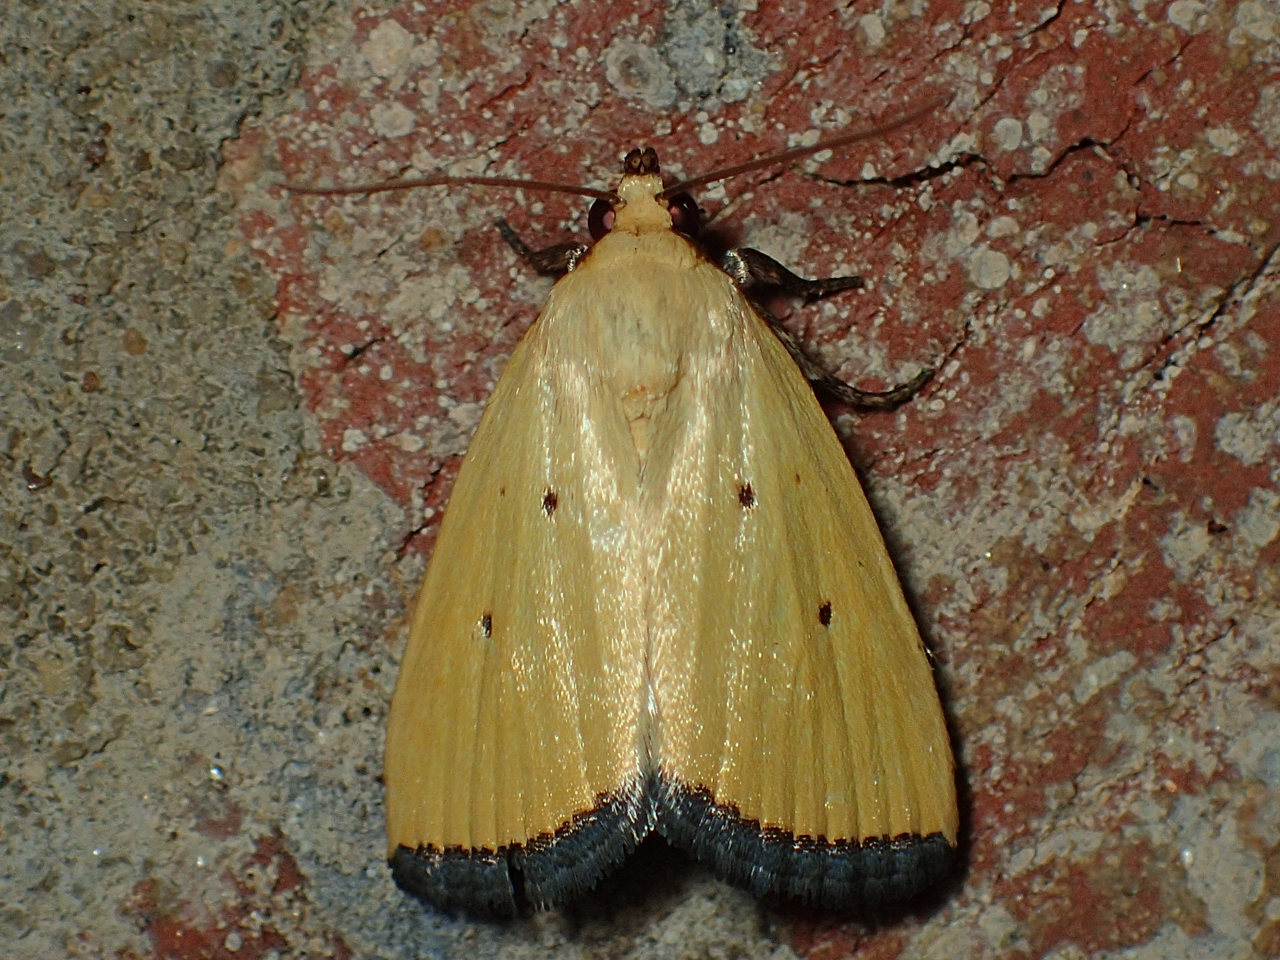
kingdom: Animalia
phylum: Arthropoda
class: Insecta
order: Lepidoptera
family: Noctuidae
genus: Marimatha
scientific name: Marimatha nigrofimbria
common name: Black-bordered lemon moth
